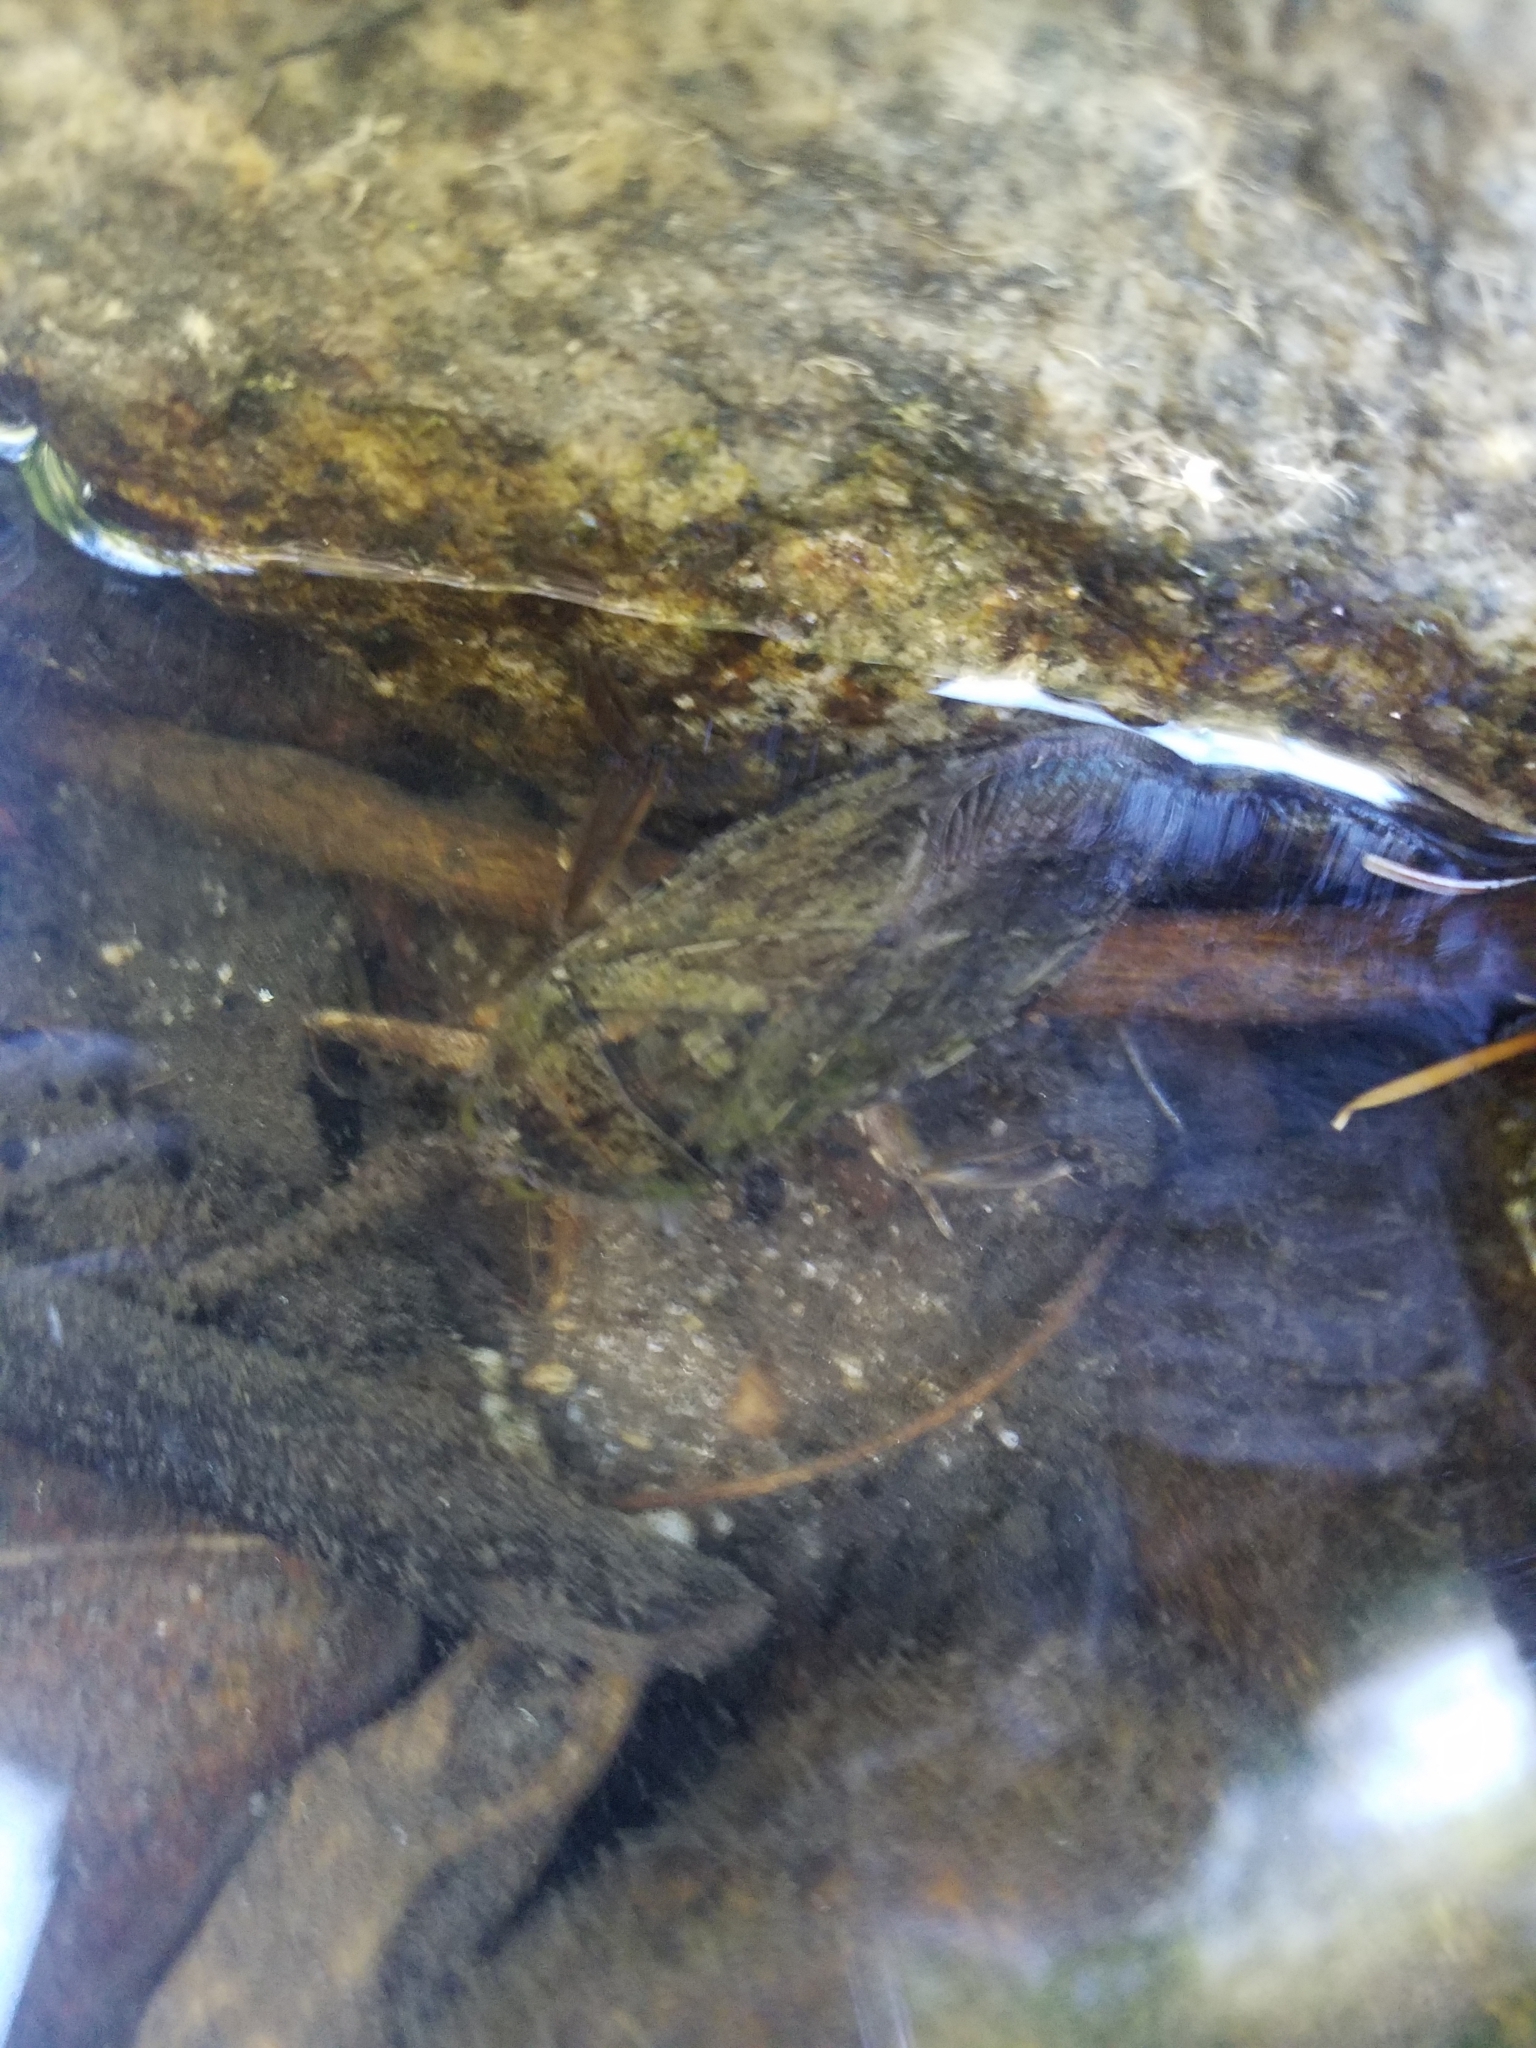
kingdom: Animalia
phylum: Arthropoda
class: Insecta
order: Hemiptera
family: Belostomatidae
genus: Lethocerus
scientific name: Lethocerus americanus
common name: Giant water bug
